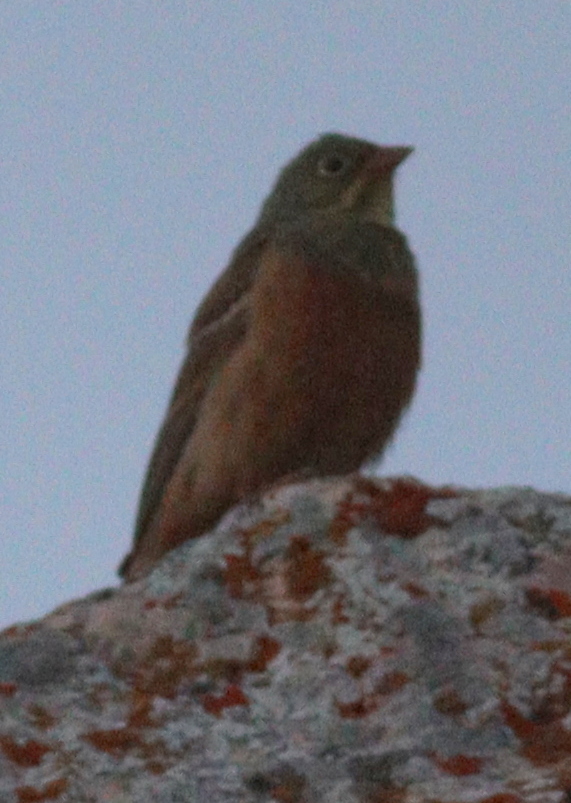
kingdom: Animalia
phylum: Chordata
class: Aves
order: Passeriformes
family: Emberizidae
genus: Emberiza
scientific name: Emberiza hortulana
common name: Ortolan bunting
